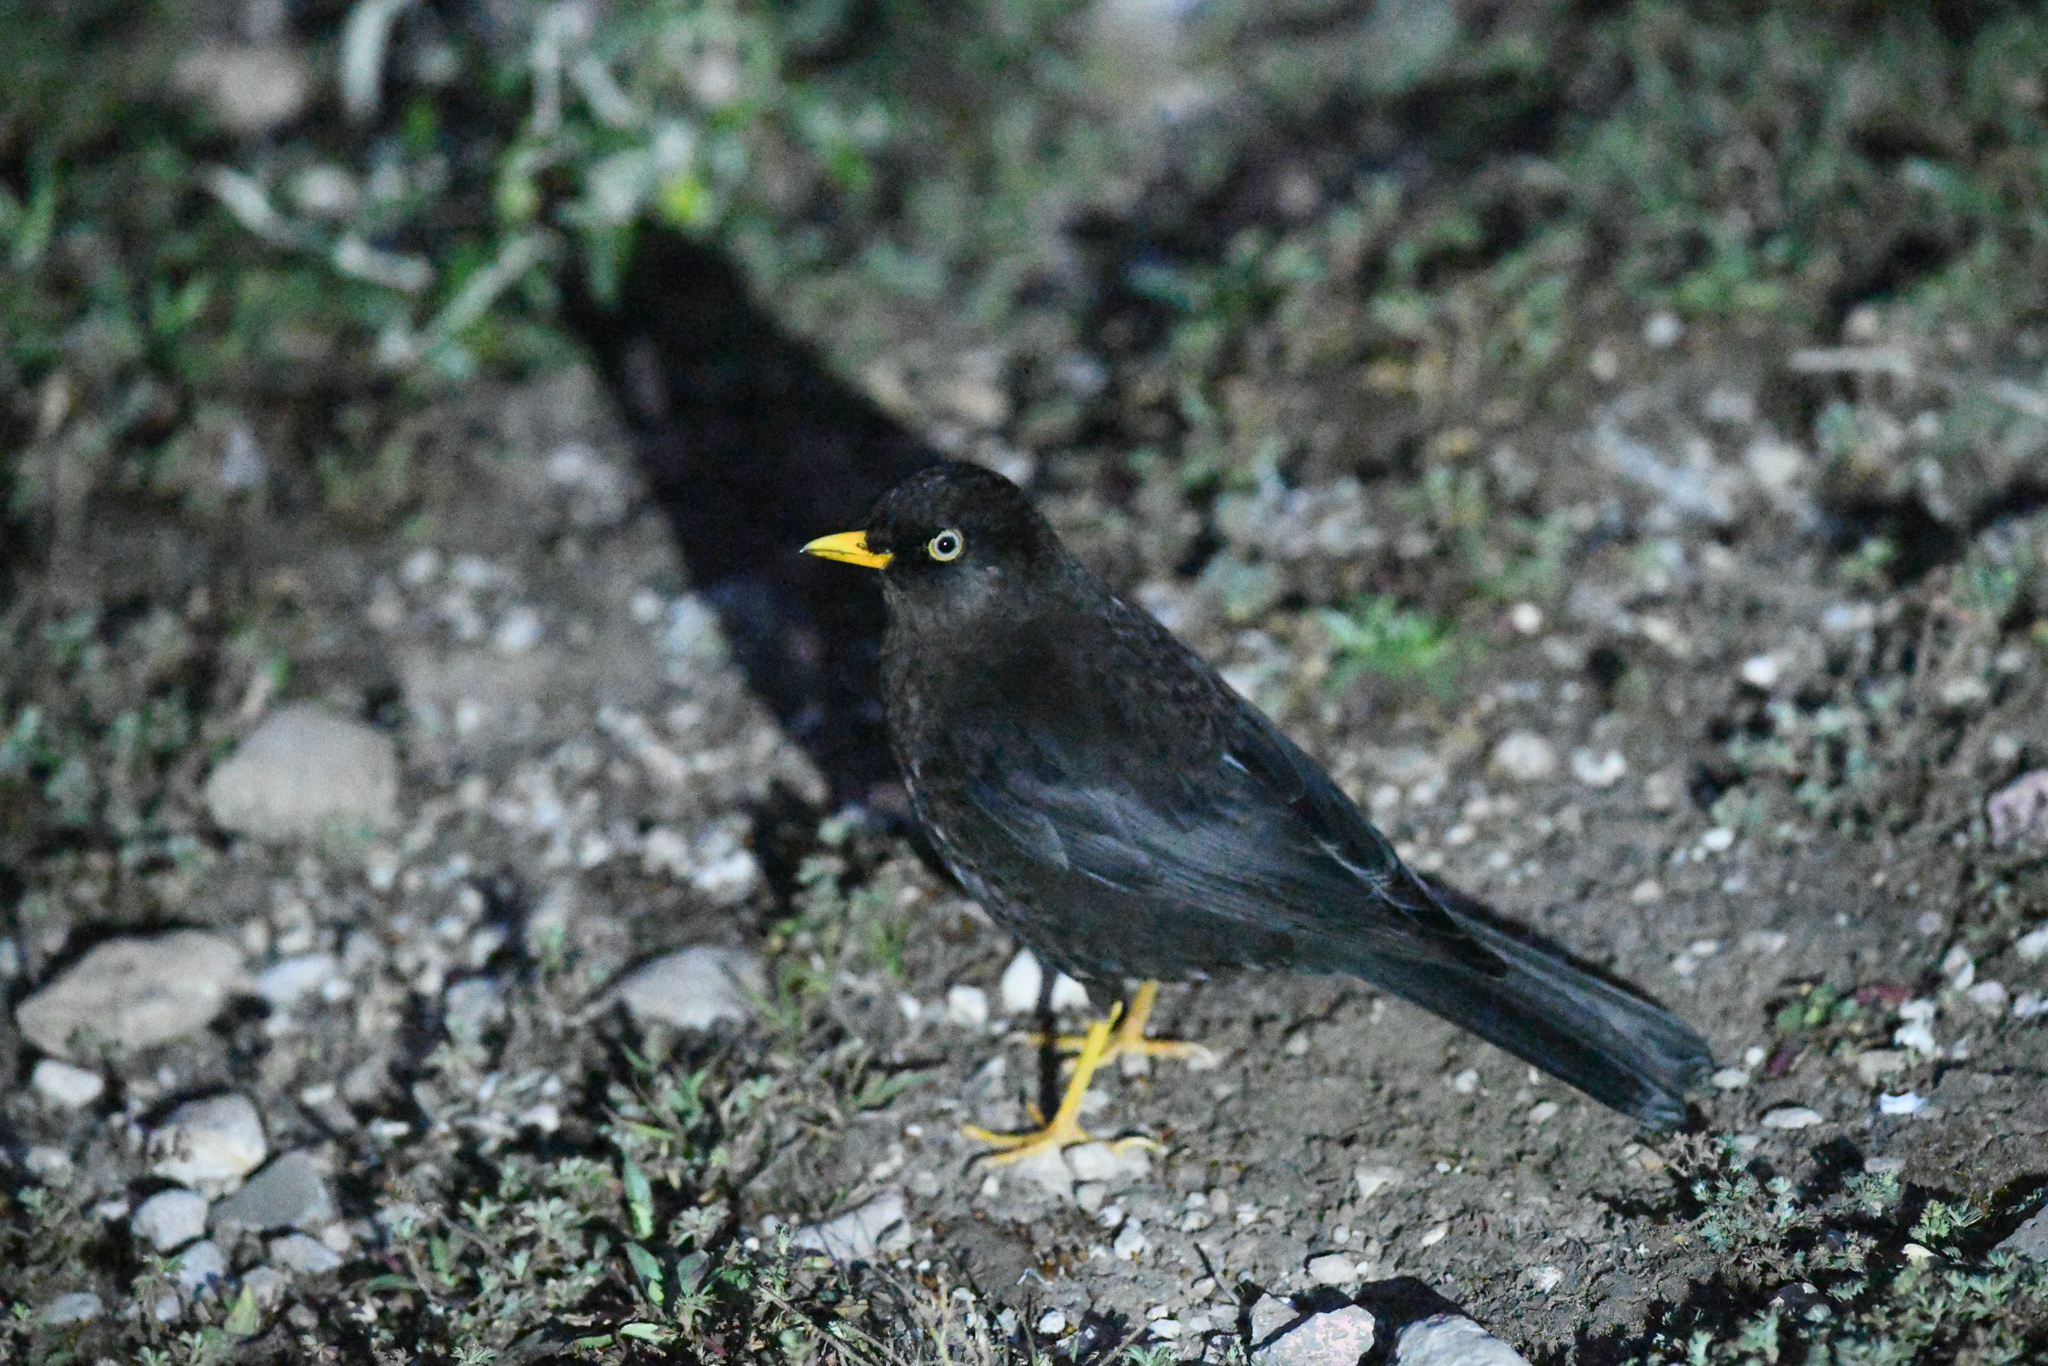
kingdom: Animalia
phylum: Chordata
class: Aves
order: Passeriformes
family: Turdidae
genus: Turdus
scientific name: Turdus nigrescens
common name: Sooty thrush
